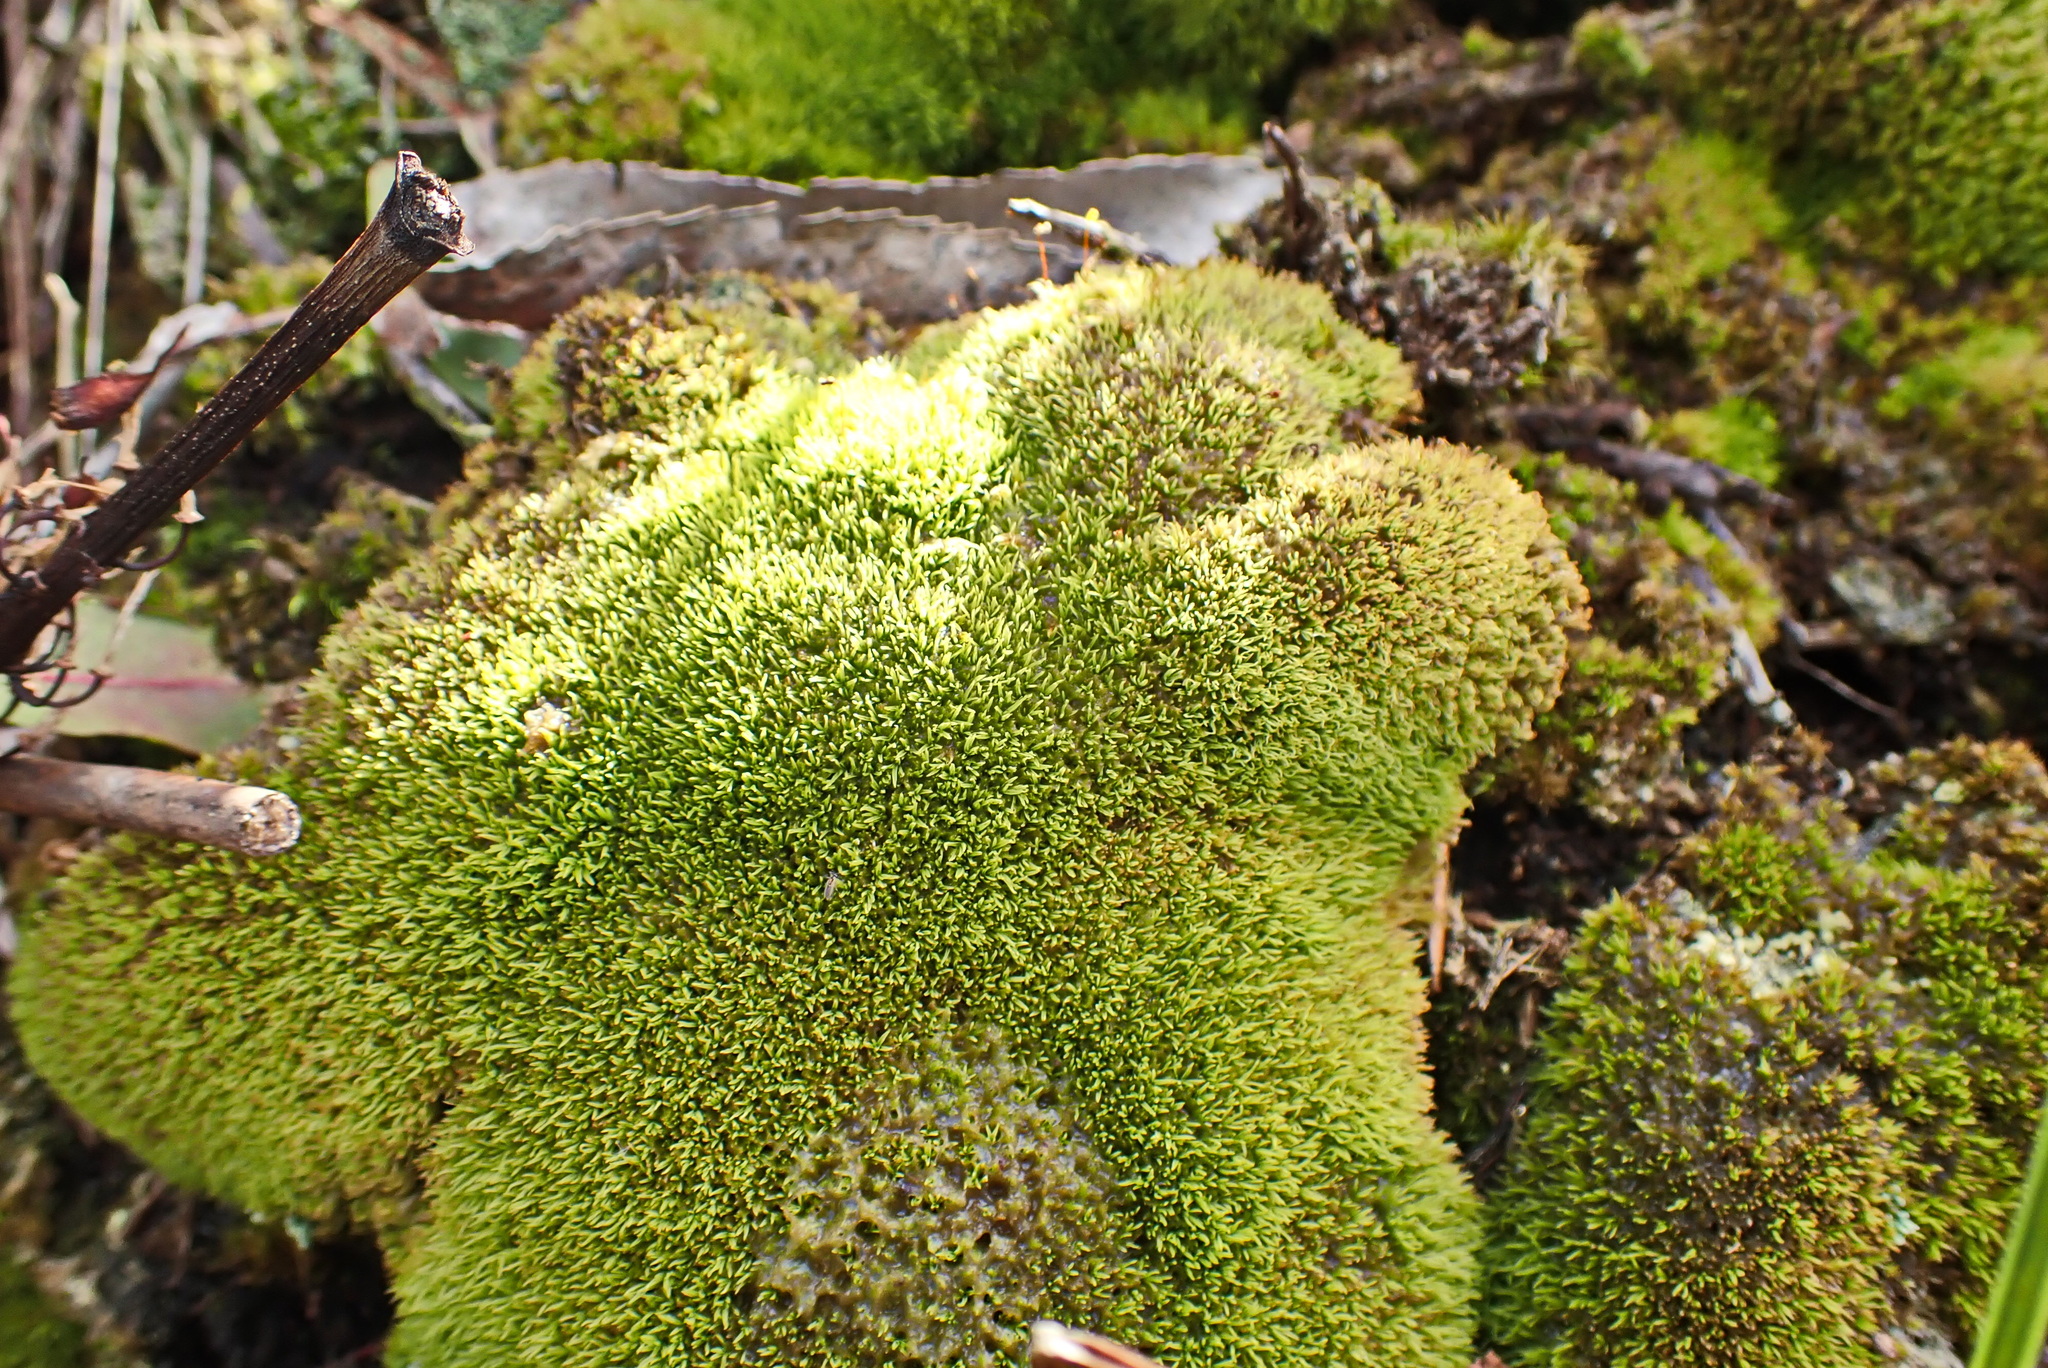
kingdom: Plantae
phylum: Bryophyta
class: Bryopsida
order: Dicranales
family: Hypodontiaceae
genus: Hypodontium
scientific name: Hypodontium pomiforme
